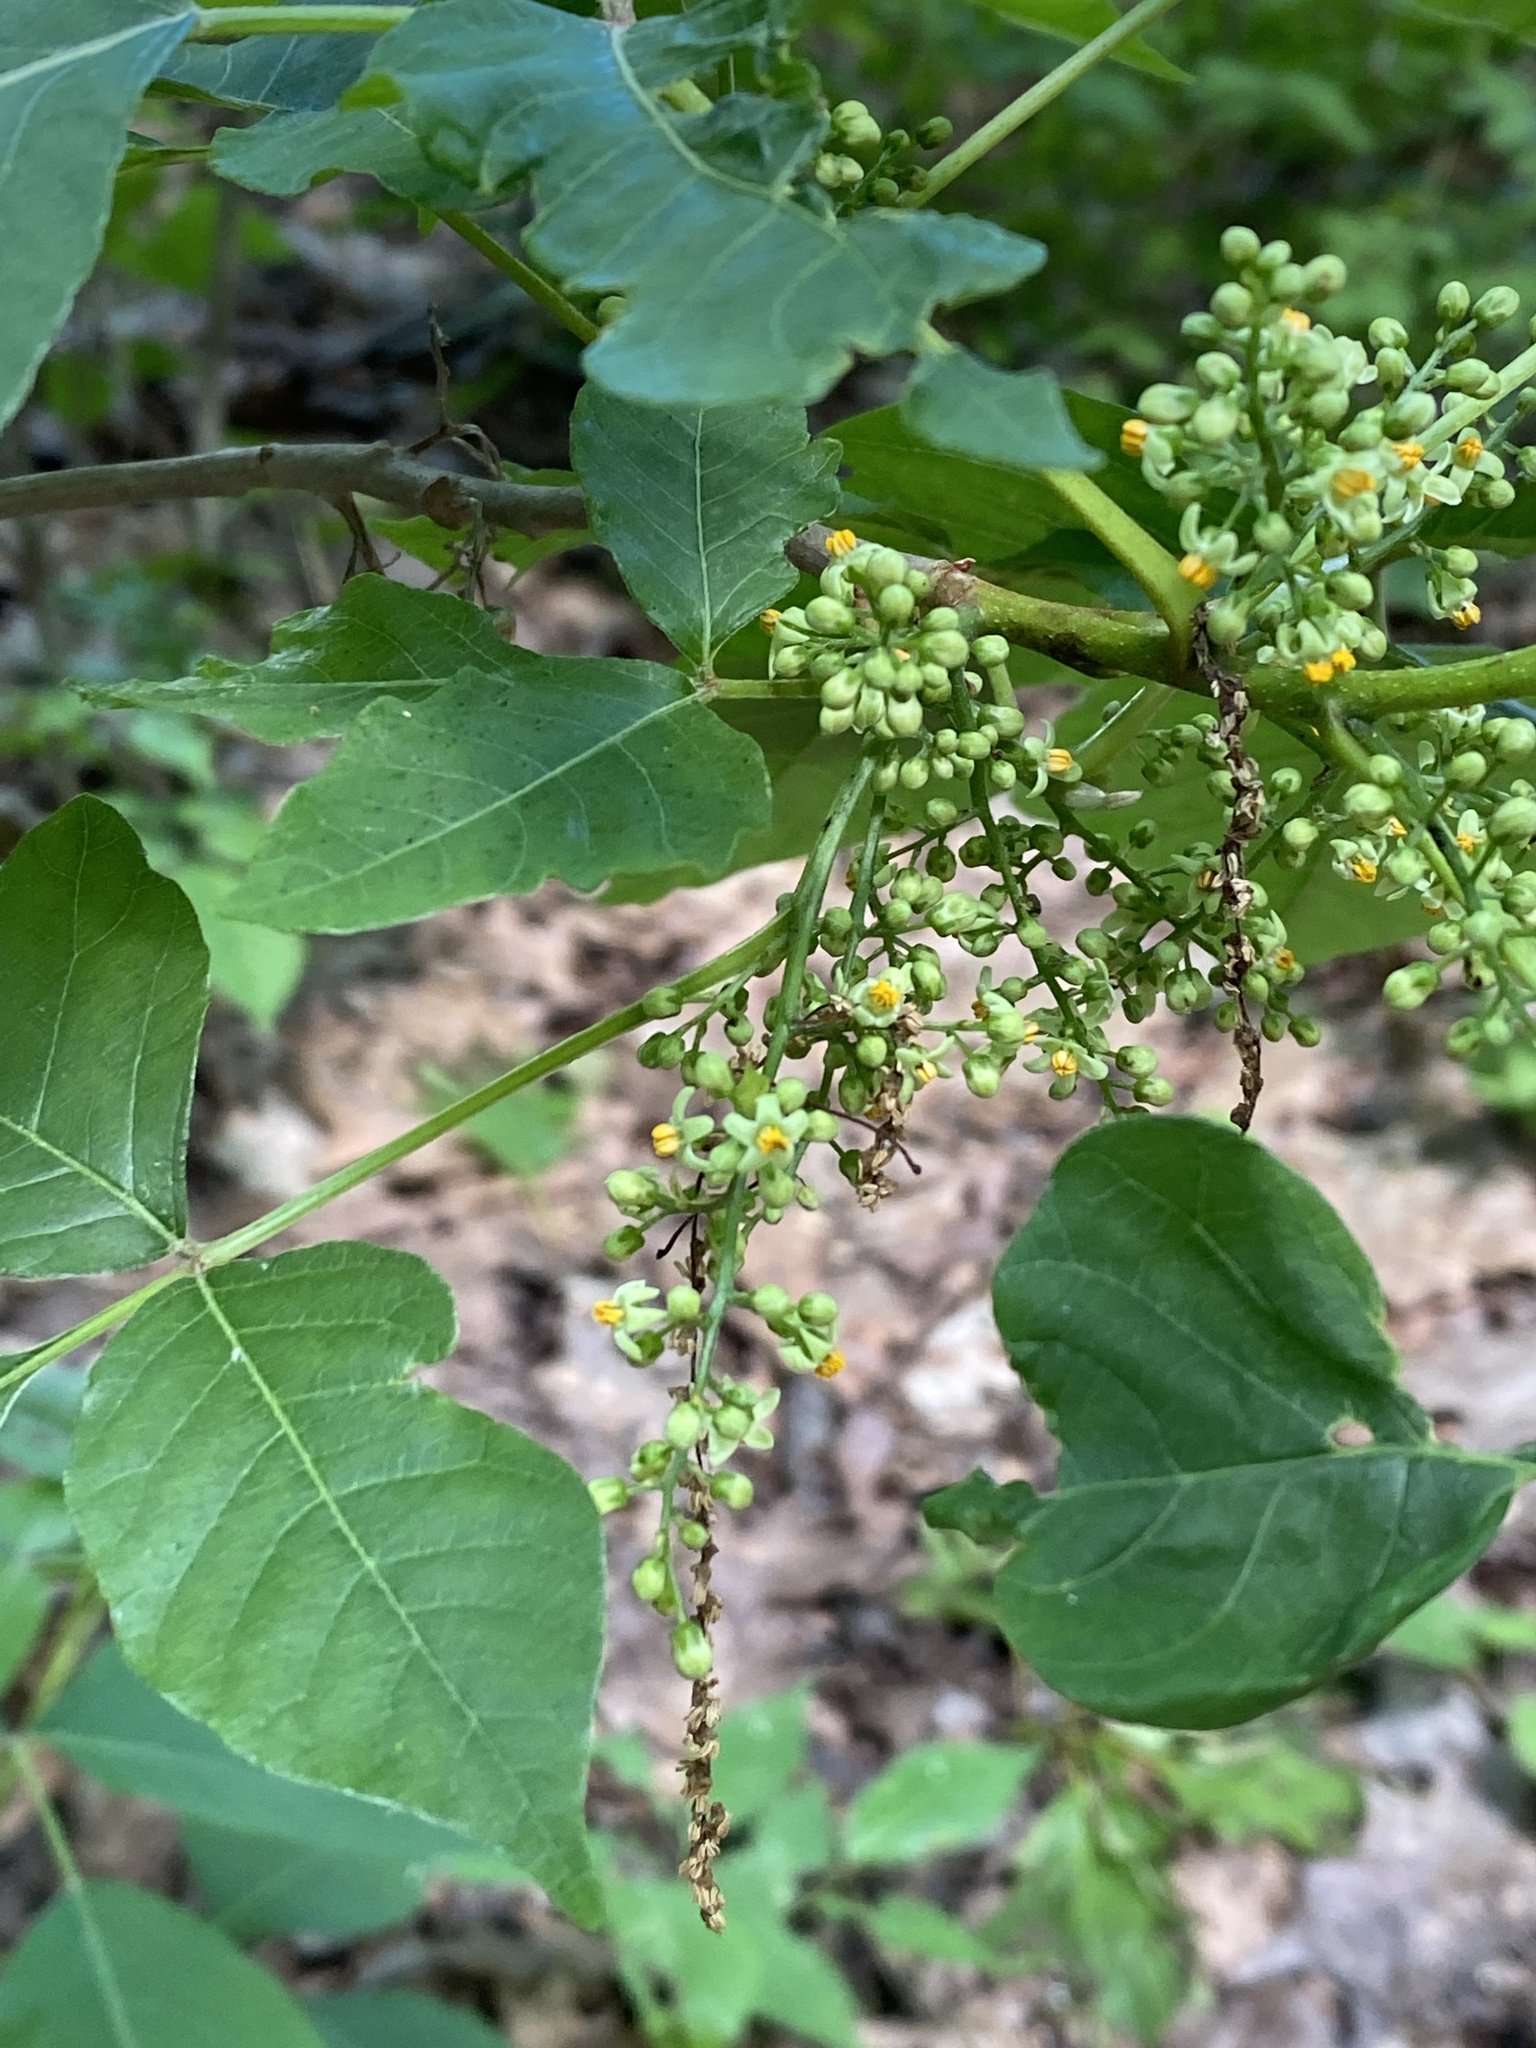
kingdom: Plantae
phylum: Tracheophyta
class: Magnoliopsida
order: Sapindales
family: Anacardiaceae
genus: Toxicodendron
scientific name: Toxicodendron radicans
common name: Poison ivy
